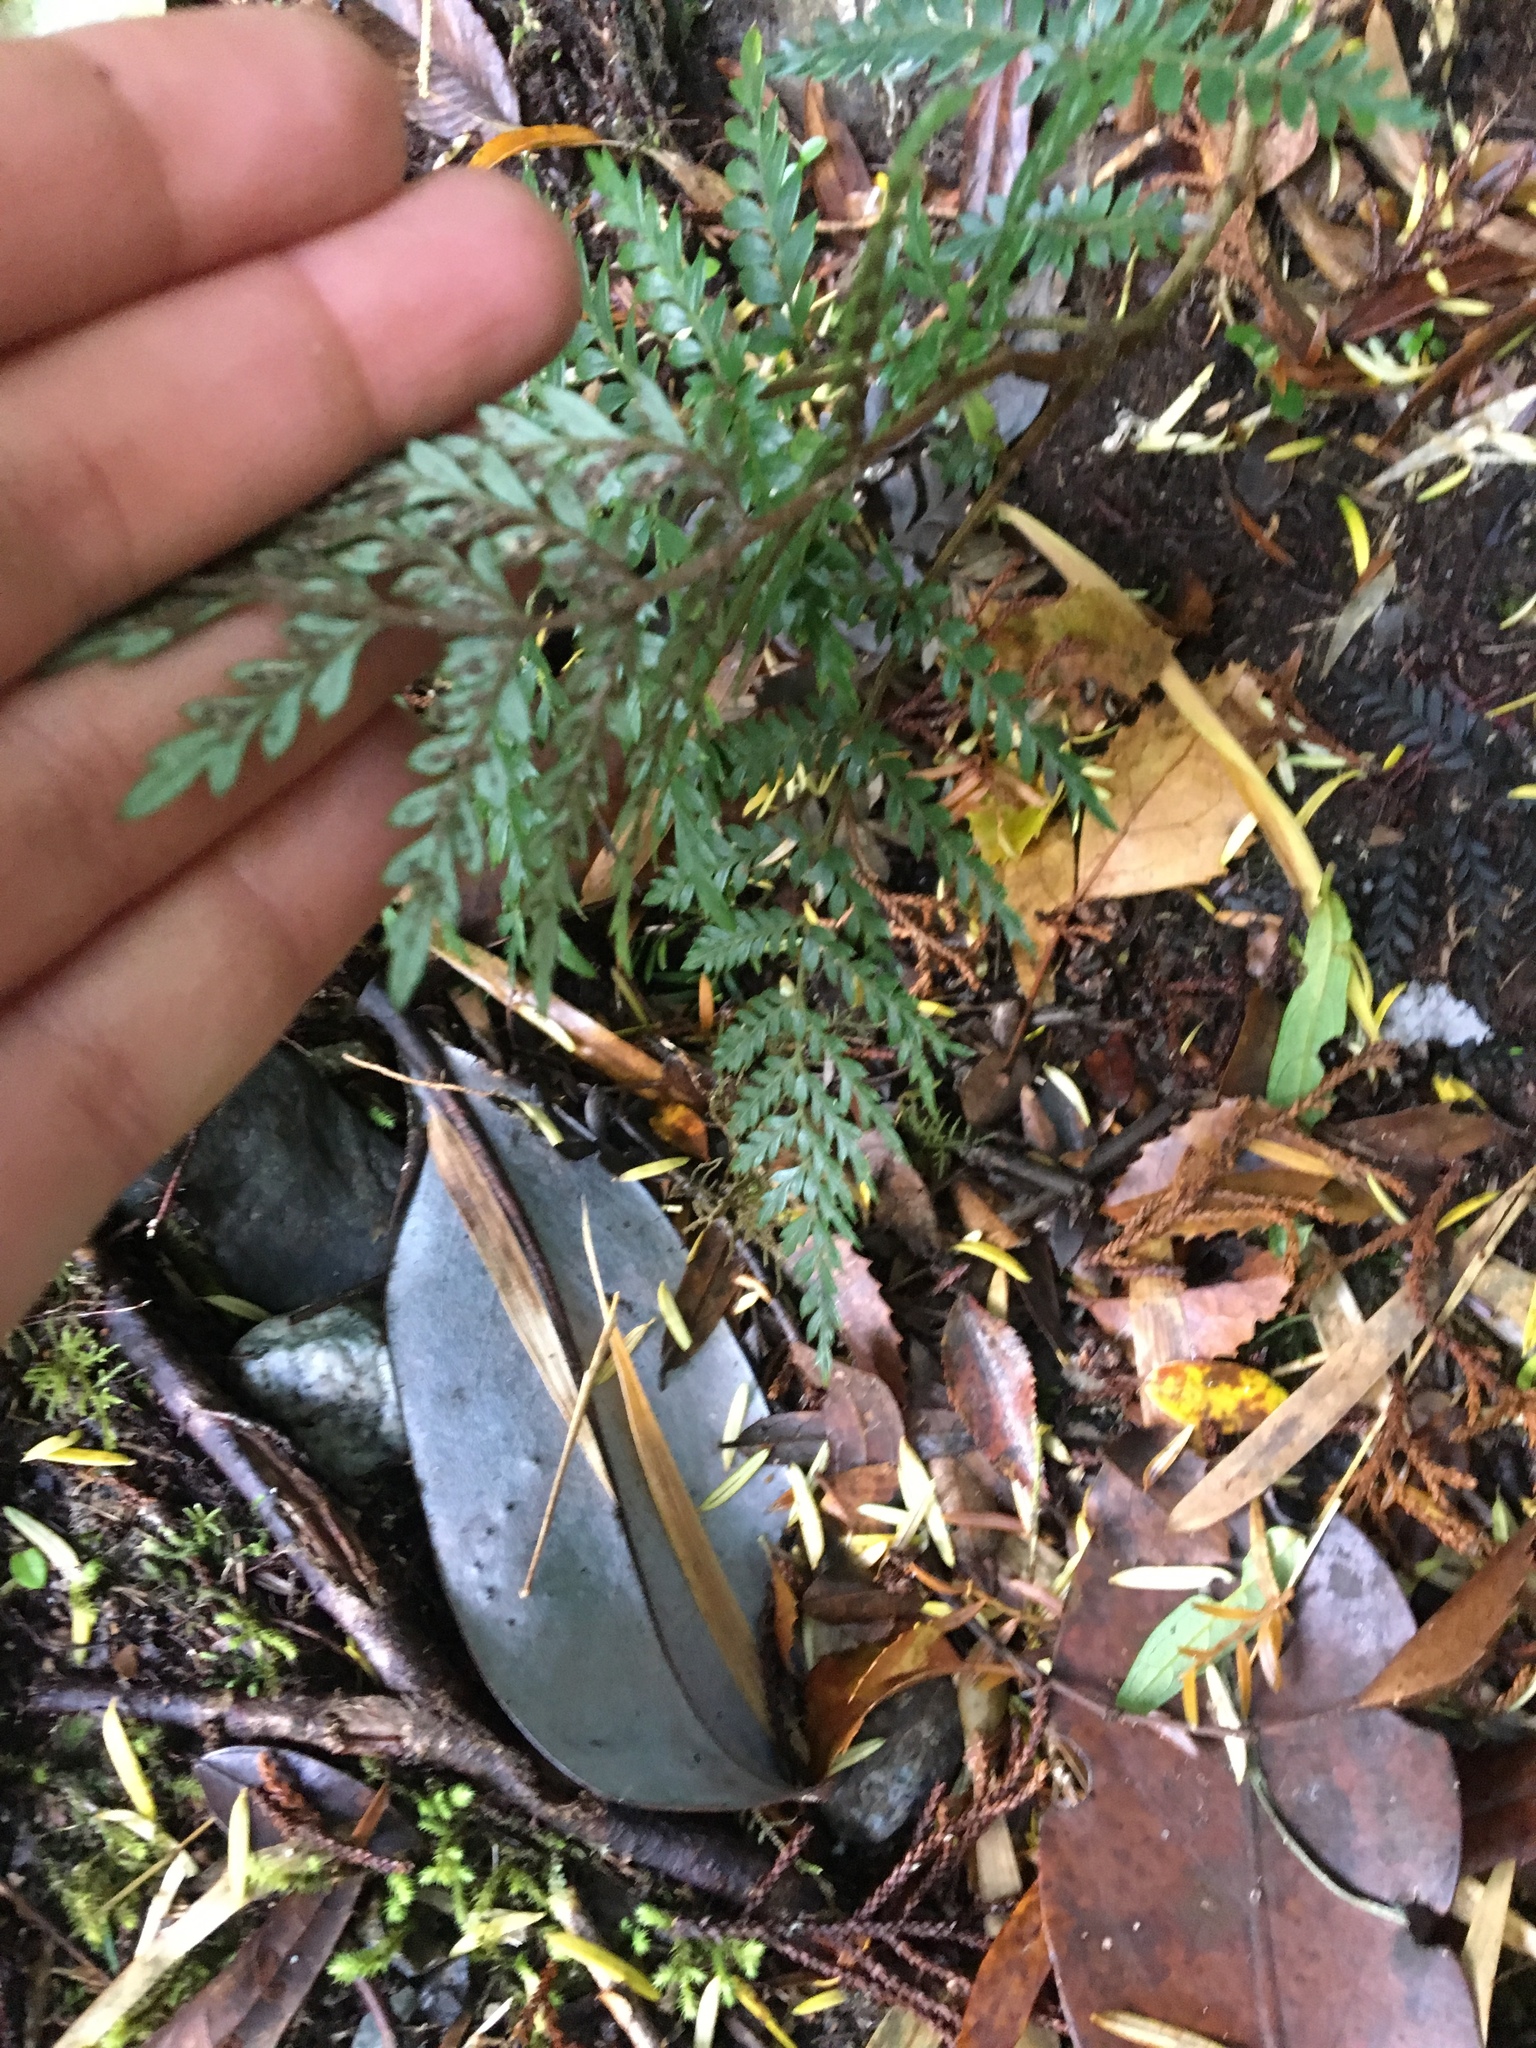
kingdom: Plantae
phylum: Tracheophyta
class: Magnoliopsida
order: Proteales
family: Proteaceae
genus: Lomatia
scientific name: Lomatia ferruginea
